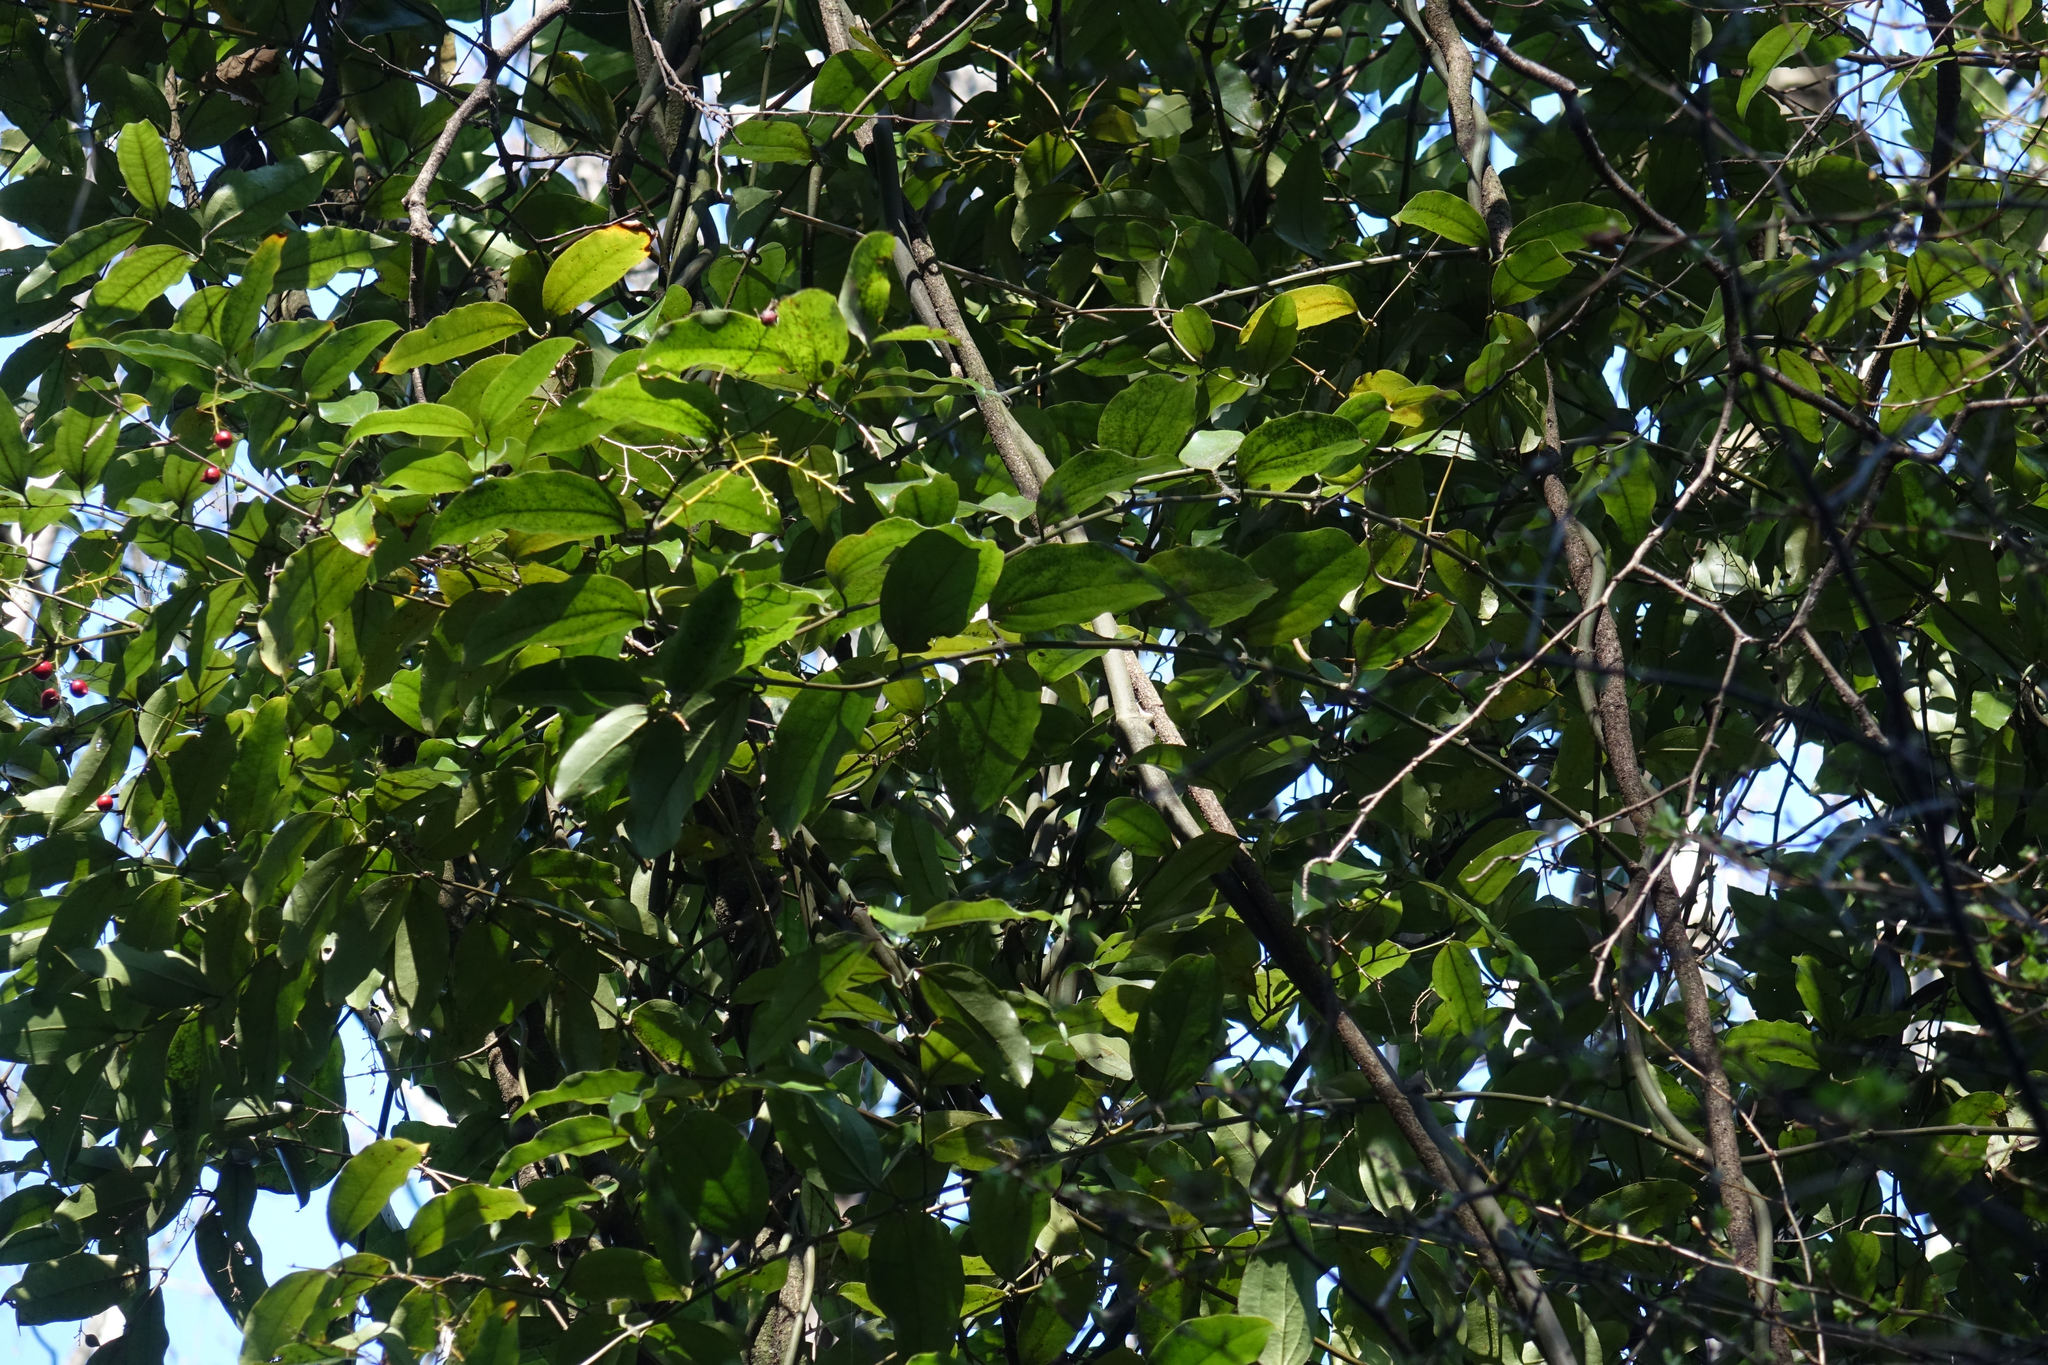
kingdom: Plantae
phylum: Tracheophyta
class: Liliopsida
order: Liliales
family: Ripogonaceae
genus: Ripogonum
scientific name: Ripogonum scandens
